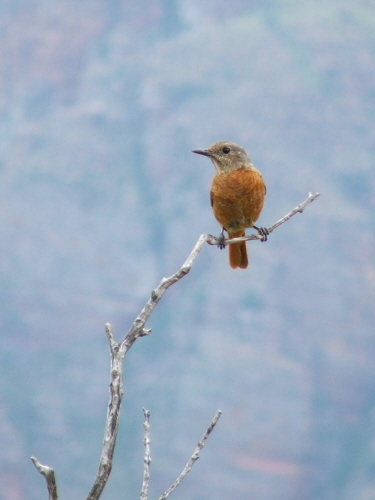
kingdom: Animalia
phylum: Chordata
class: Aves
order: Passeriformes
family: Muscicapidae
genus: Monticola
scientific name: Monticola rupestris
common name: Cape rock thrush
